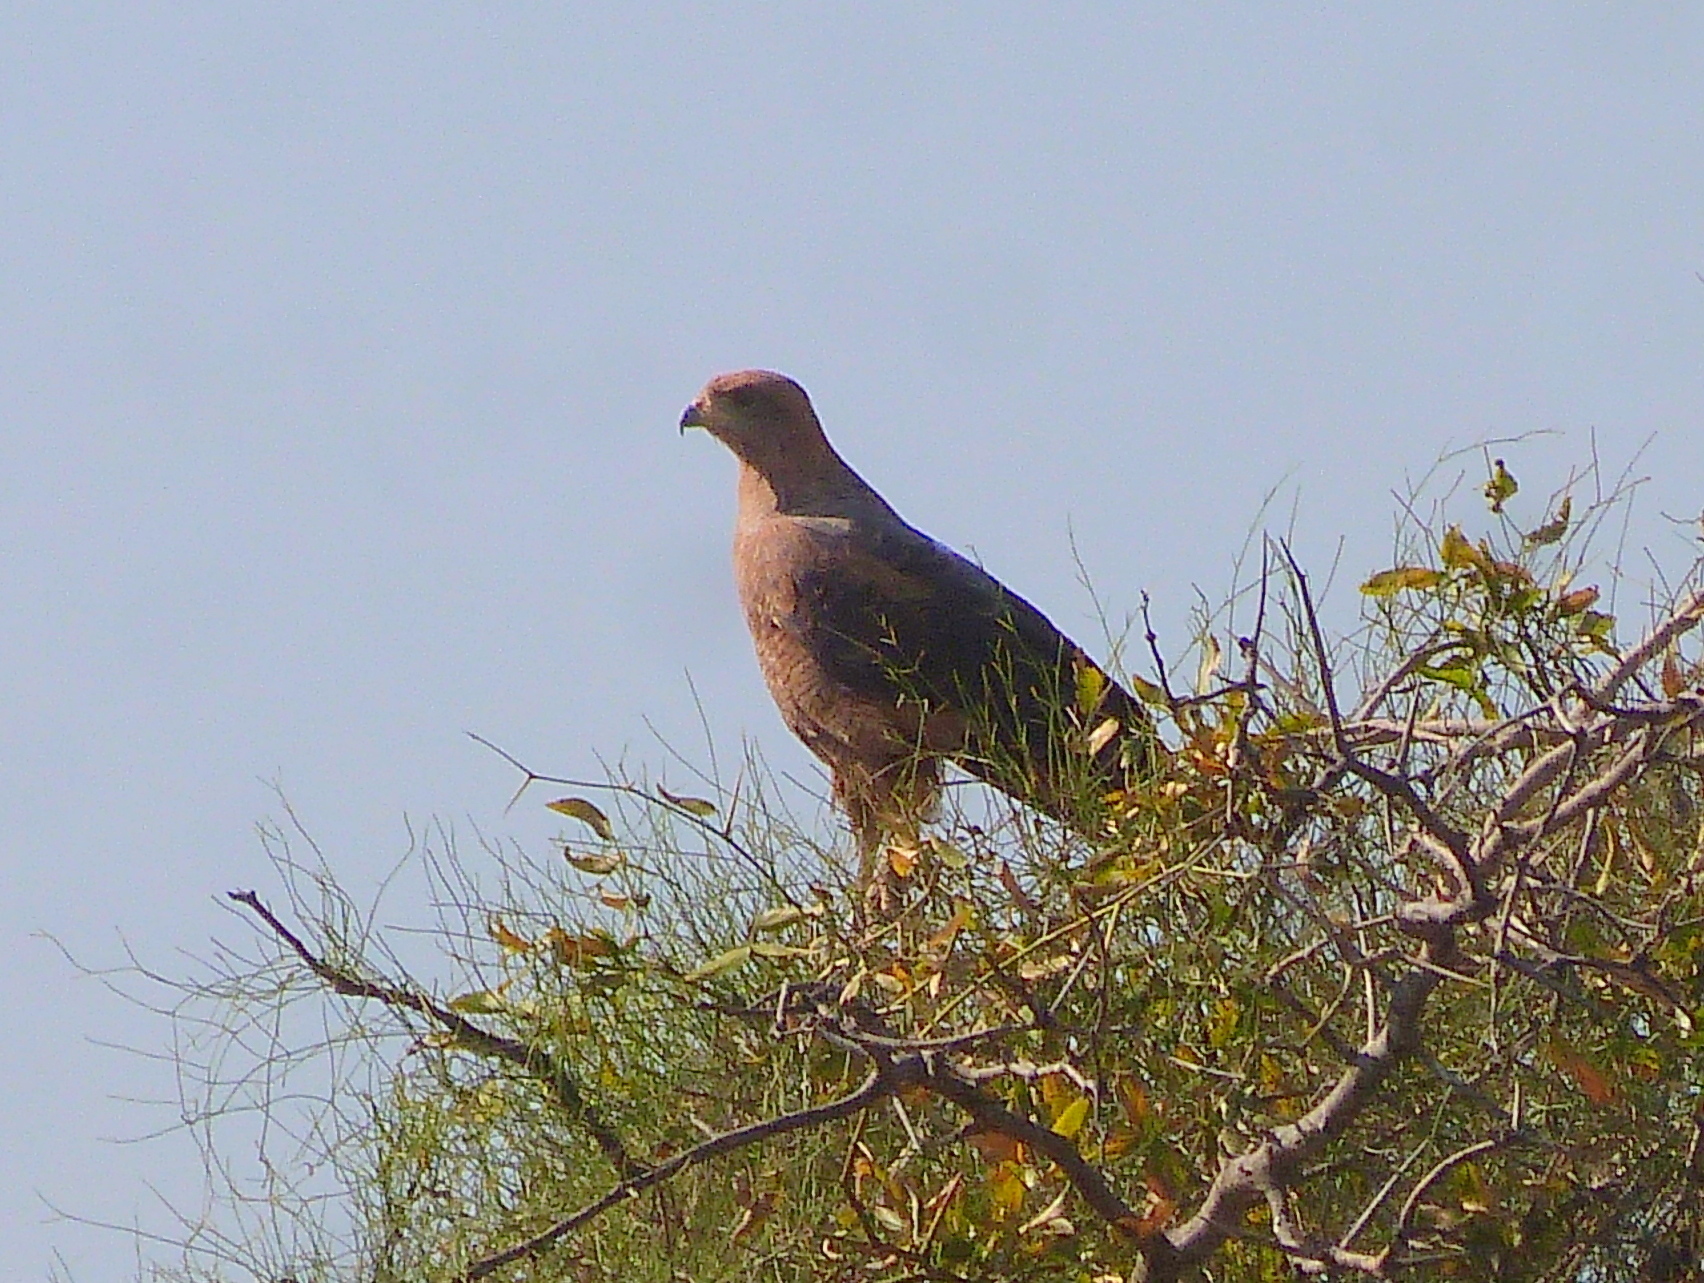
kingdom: Animalia
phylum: Chordata
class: Aves
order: Accipitriformes
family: Accipitridae
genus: Buteogallus
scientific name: Buteogallus meridionalis
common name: Savanna hawk
